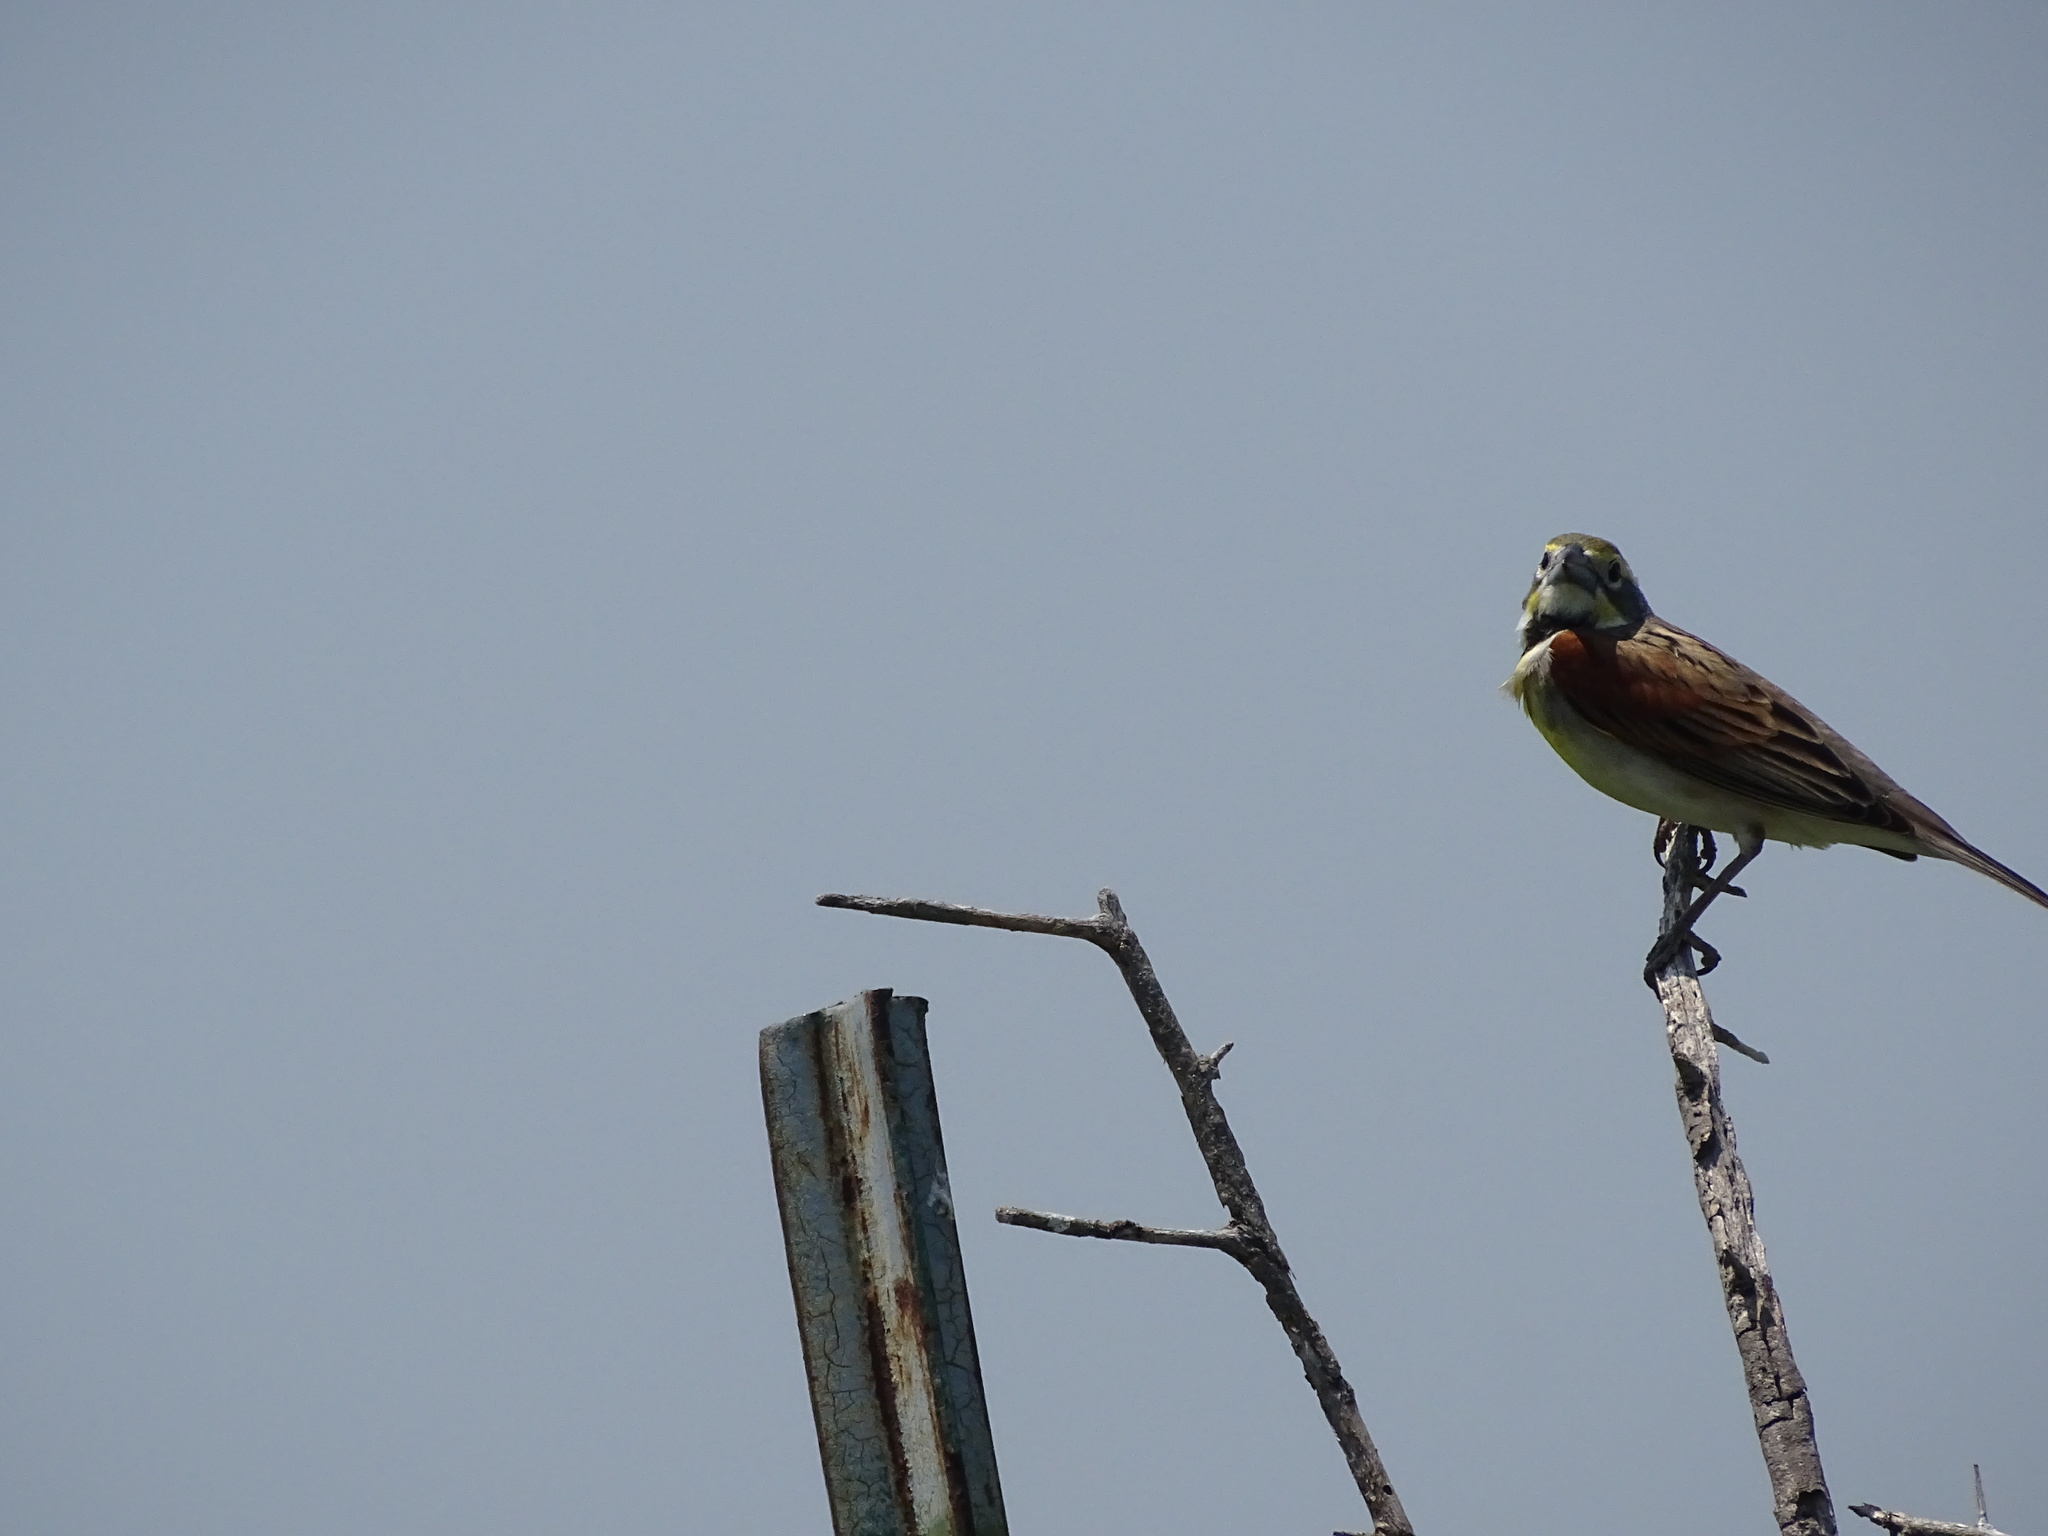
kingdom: Animalia
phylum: Chordata
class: Aves
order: Passeriformes
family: Cardinalidae
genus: Spiza
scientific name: Spiza americana
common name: Dickcissel
